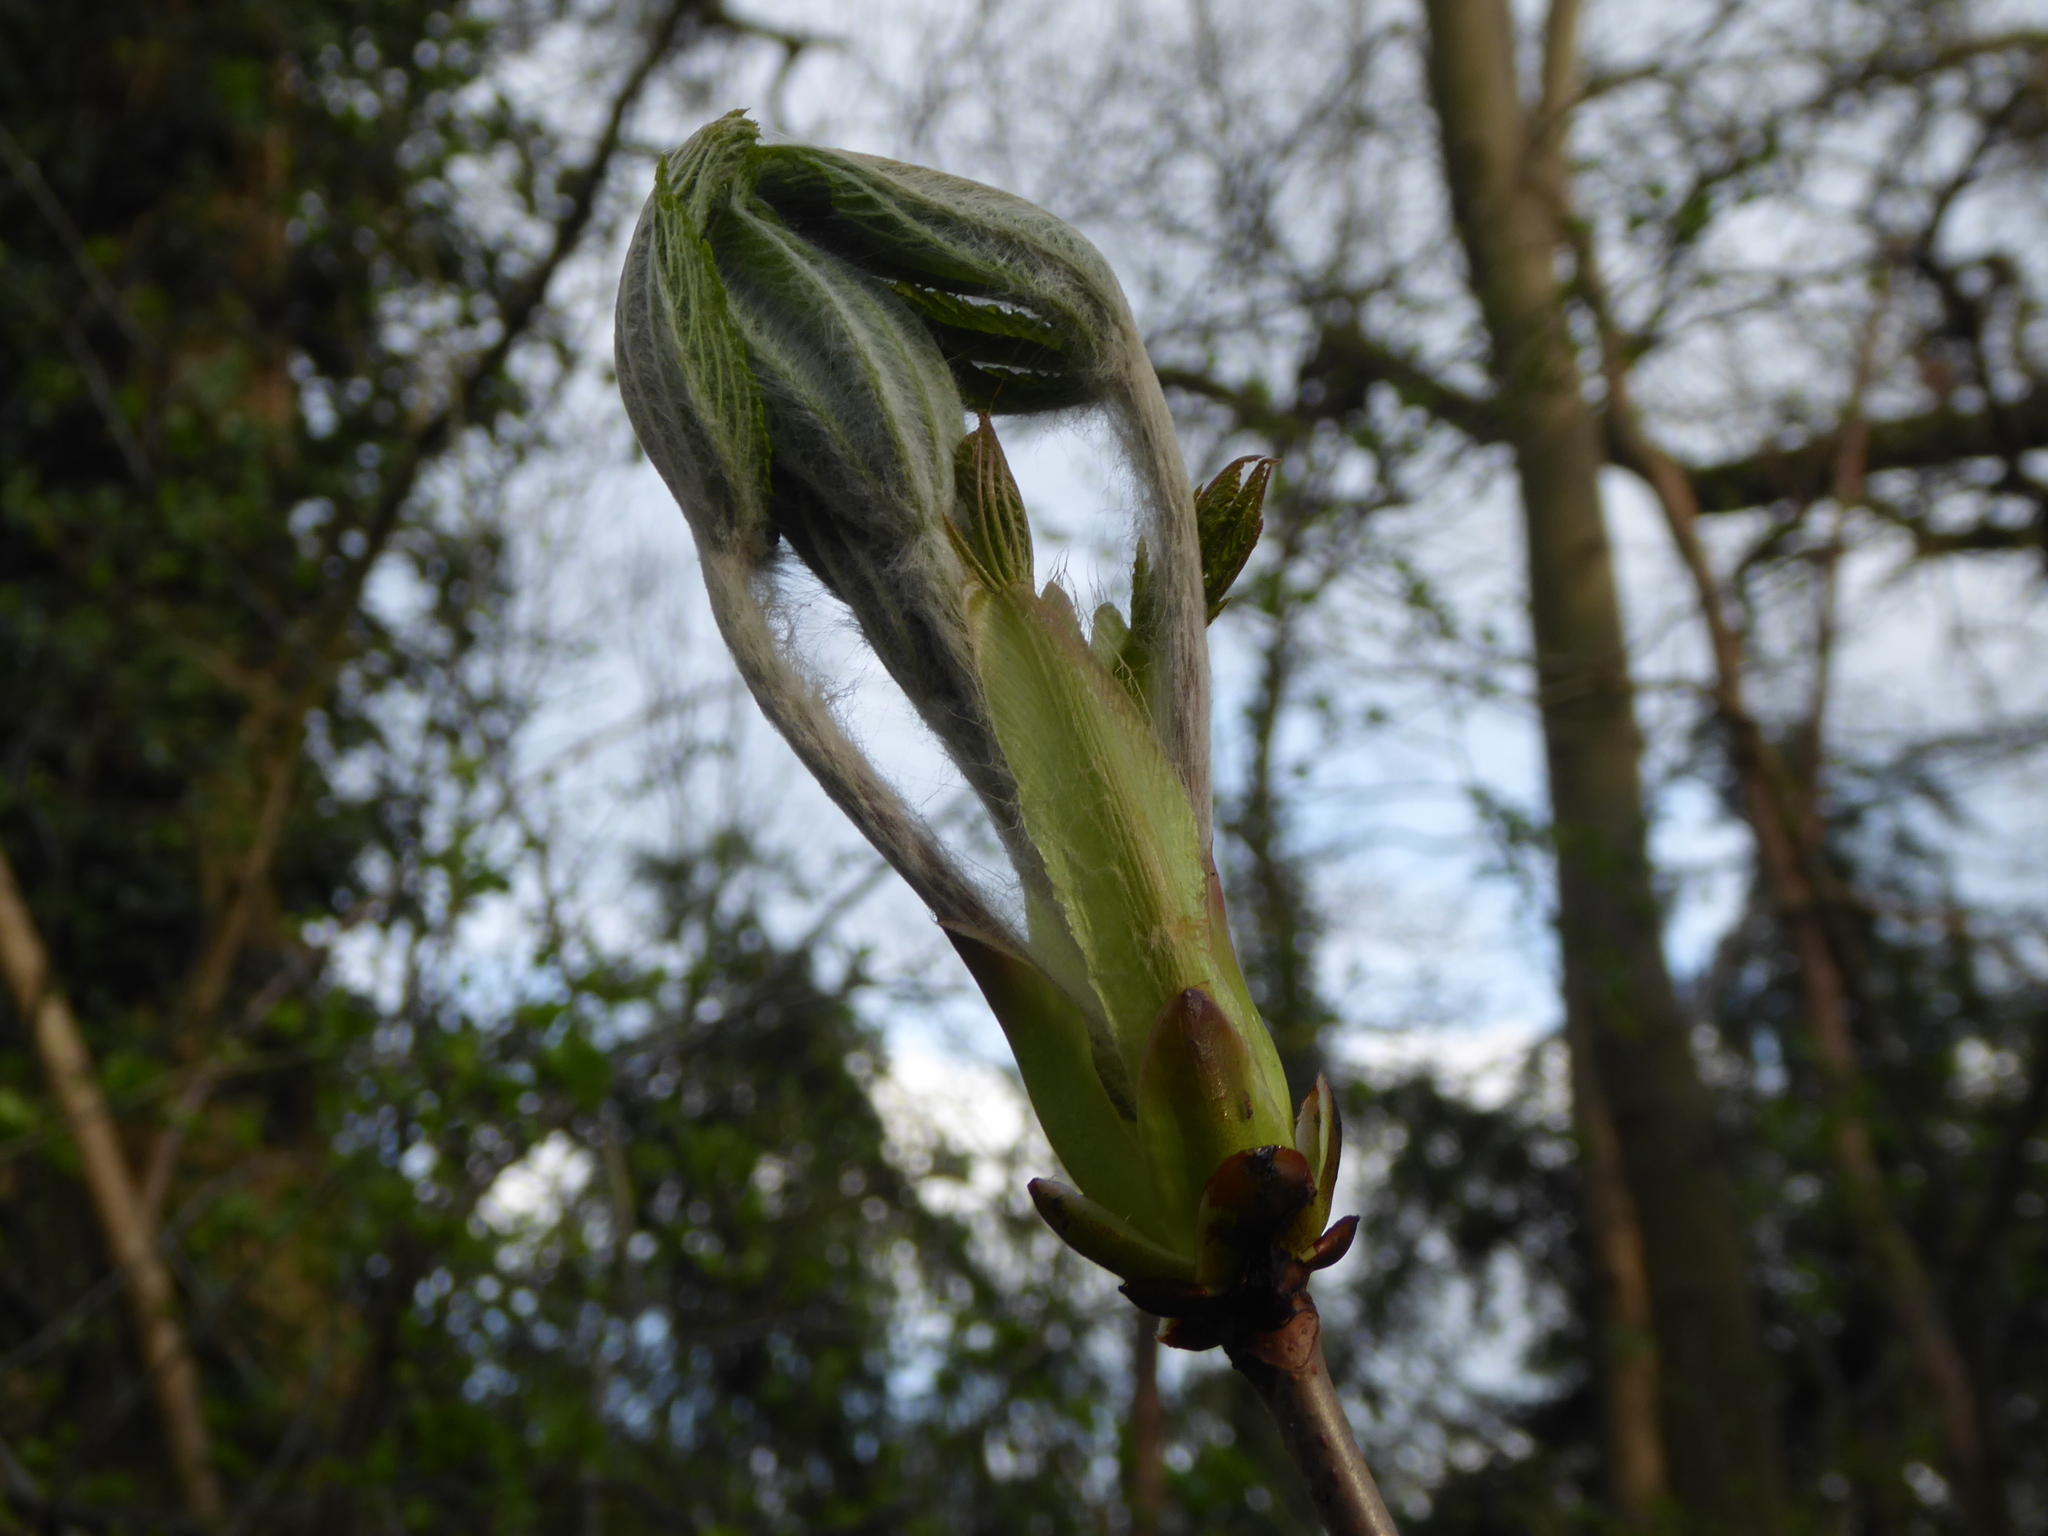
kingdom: Plantae
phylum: Tracheophyta
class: Magnoliopsida
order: Sapindales
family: Sapindaceae
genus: Aesculus
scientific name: Aesculus hippocastanum
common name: Horse-chestnut
